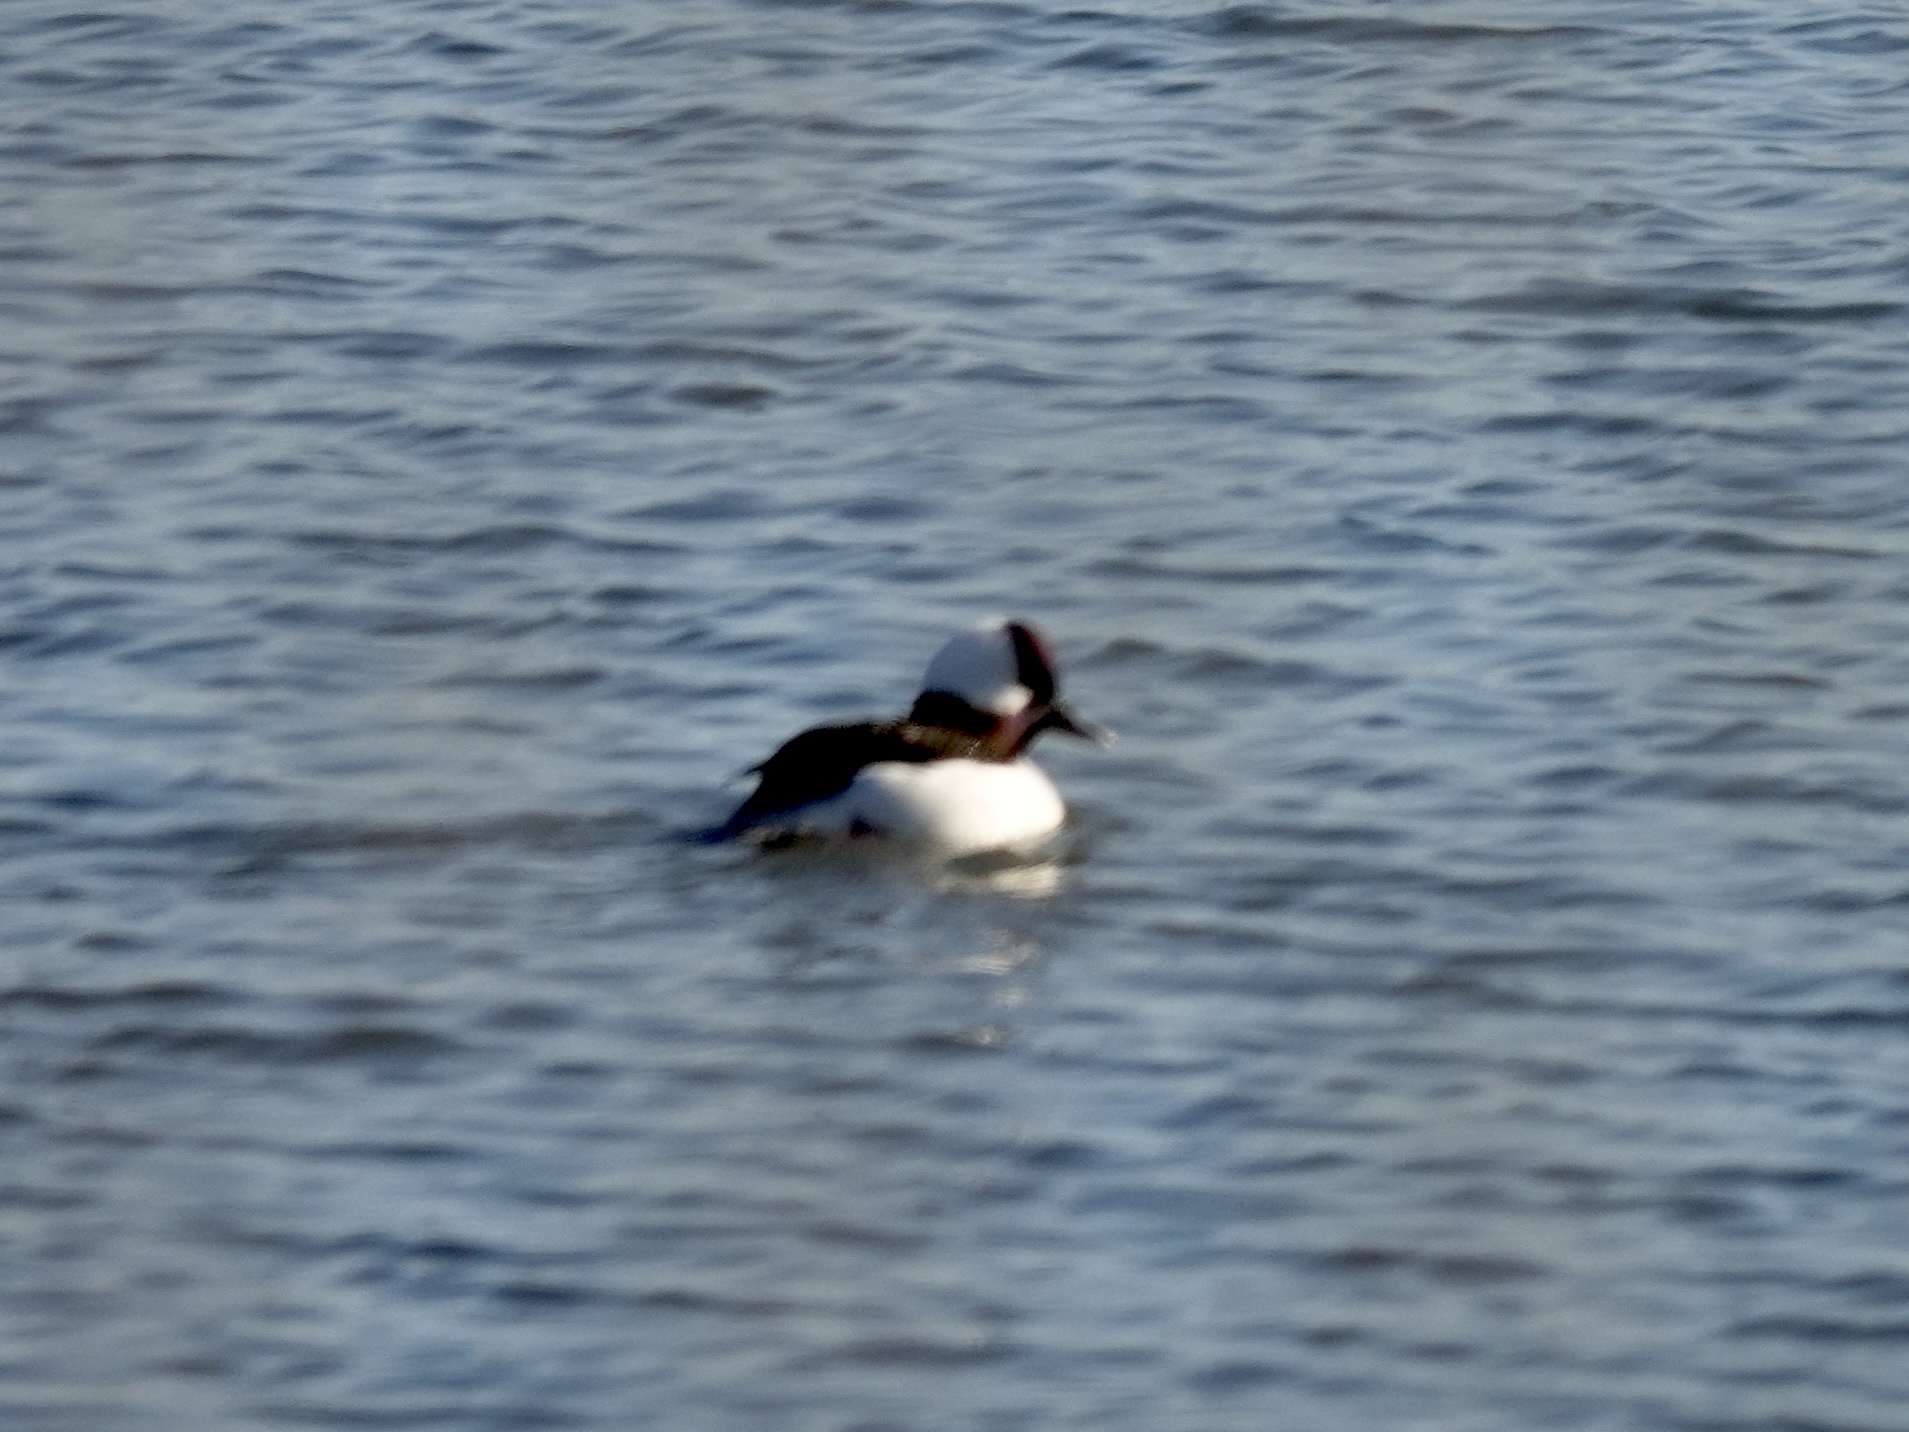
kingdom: Animalia
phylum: Chordata
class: Aves
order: Anseriformes
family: Anatidae
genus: Bucephala
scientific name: Bucephala albeola
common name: Bufflehead
